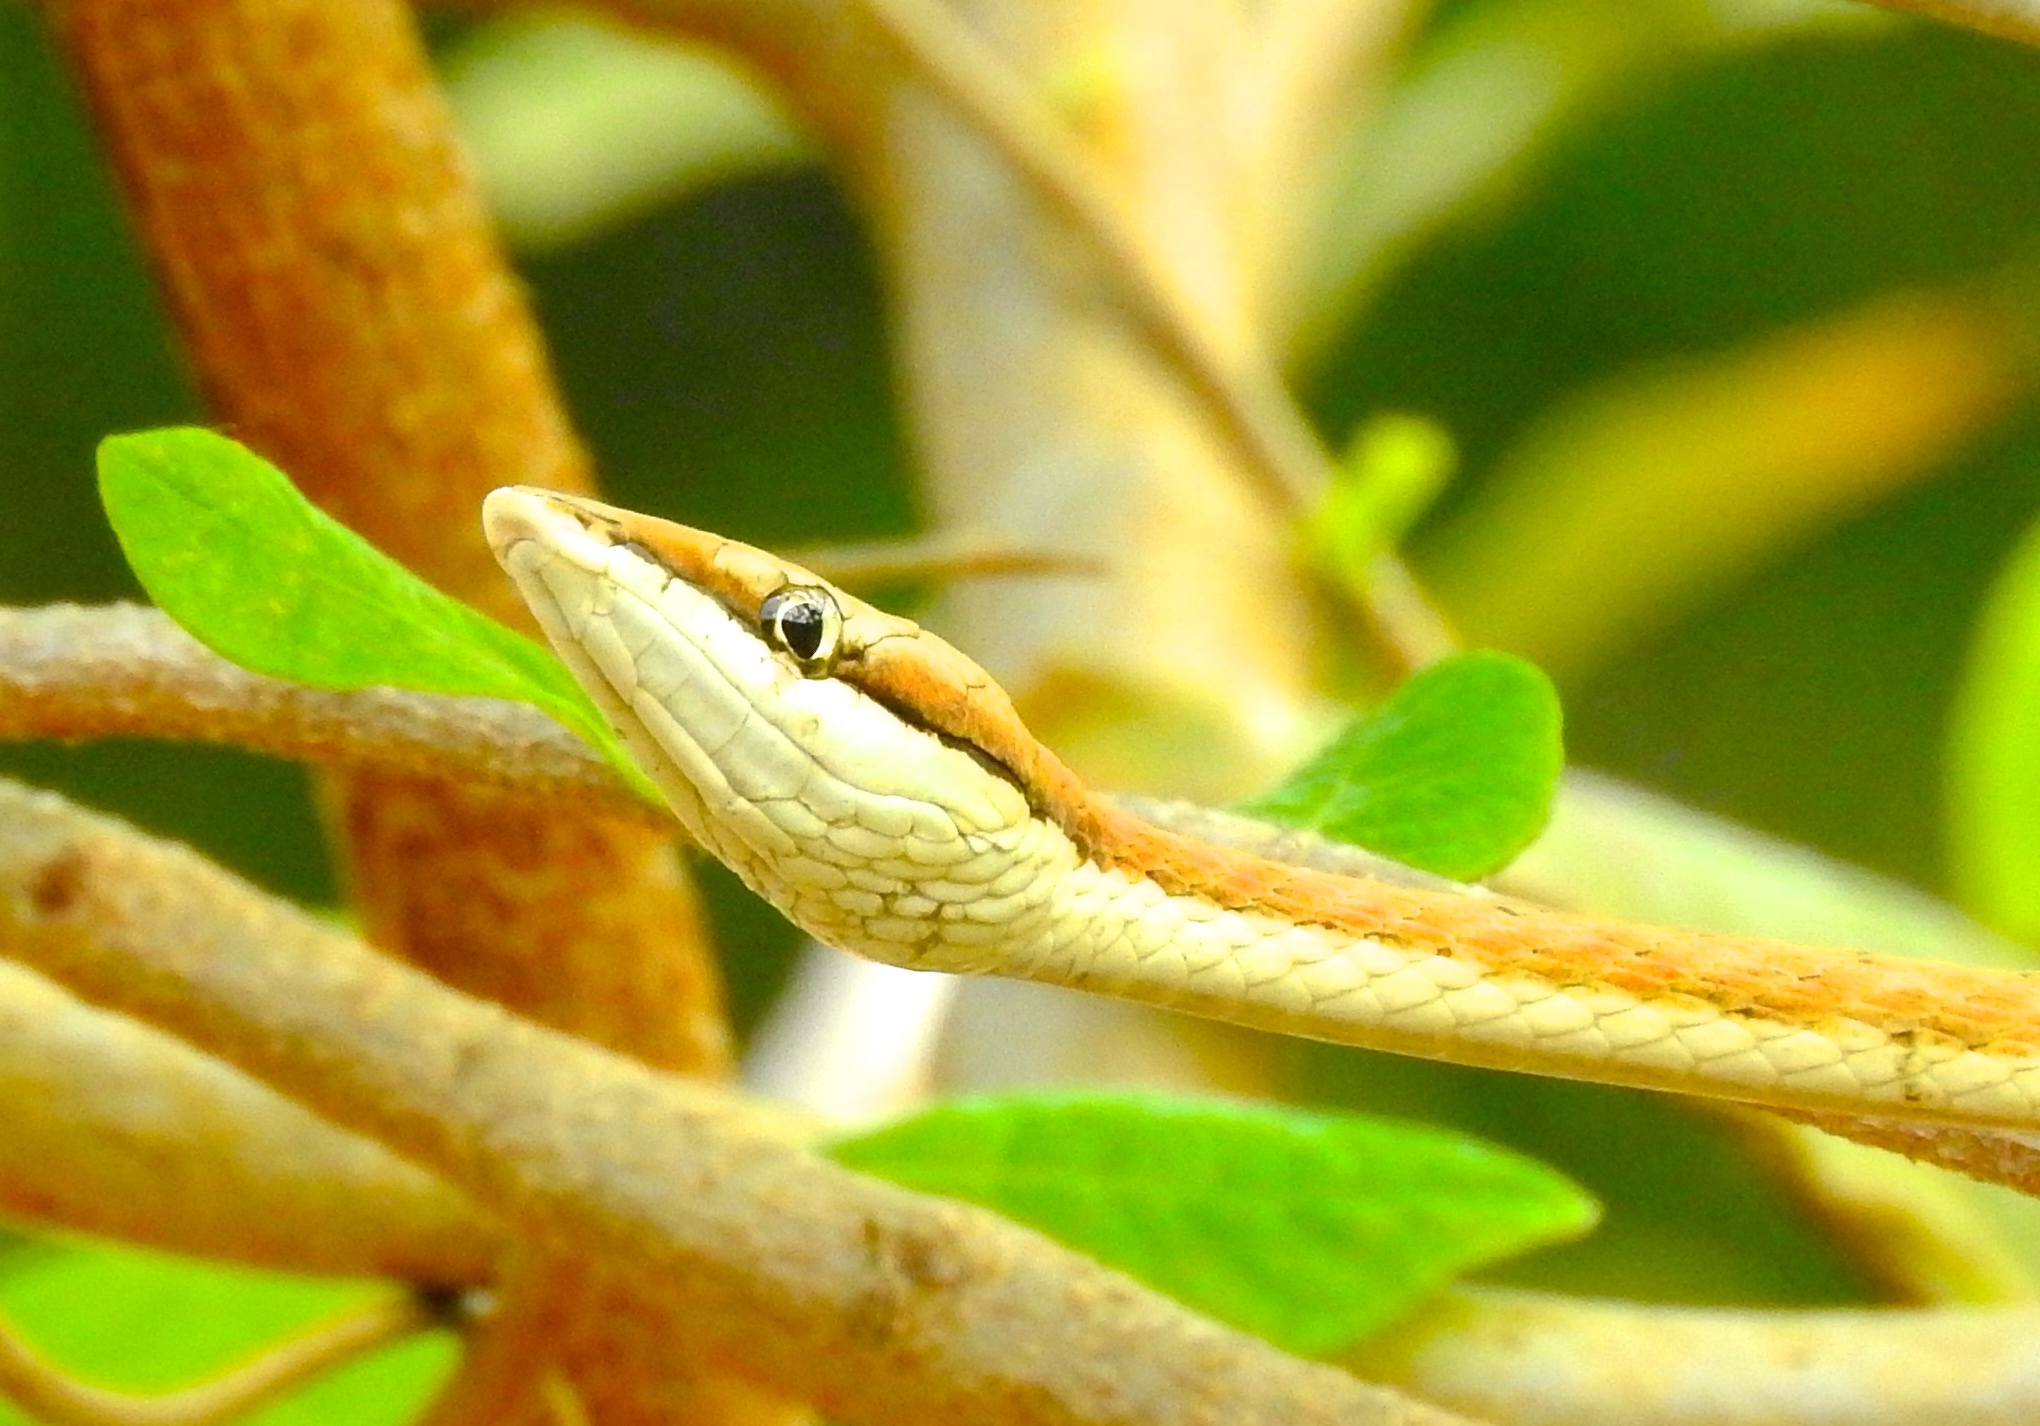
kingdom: Animalia
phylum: Chordata
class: Squamata
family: Colubridae
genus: Oxybelis
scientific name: Oxybelis microphthalmus
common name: Thrornscrub vine snake
